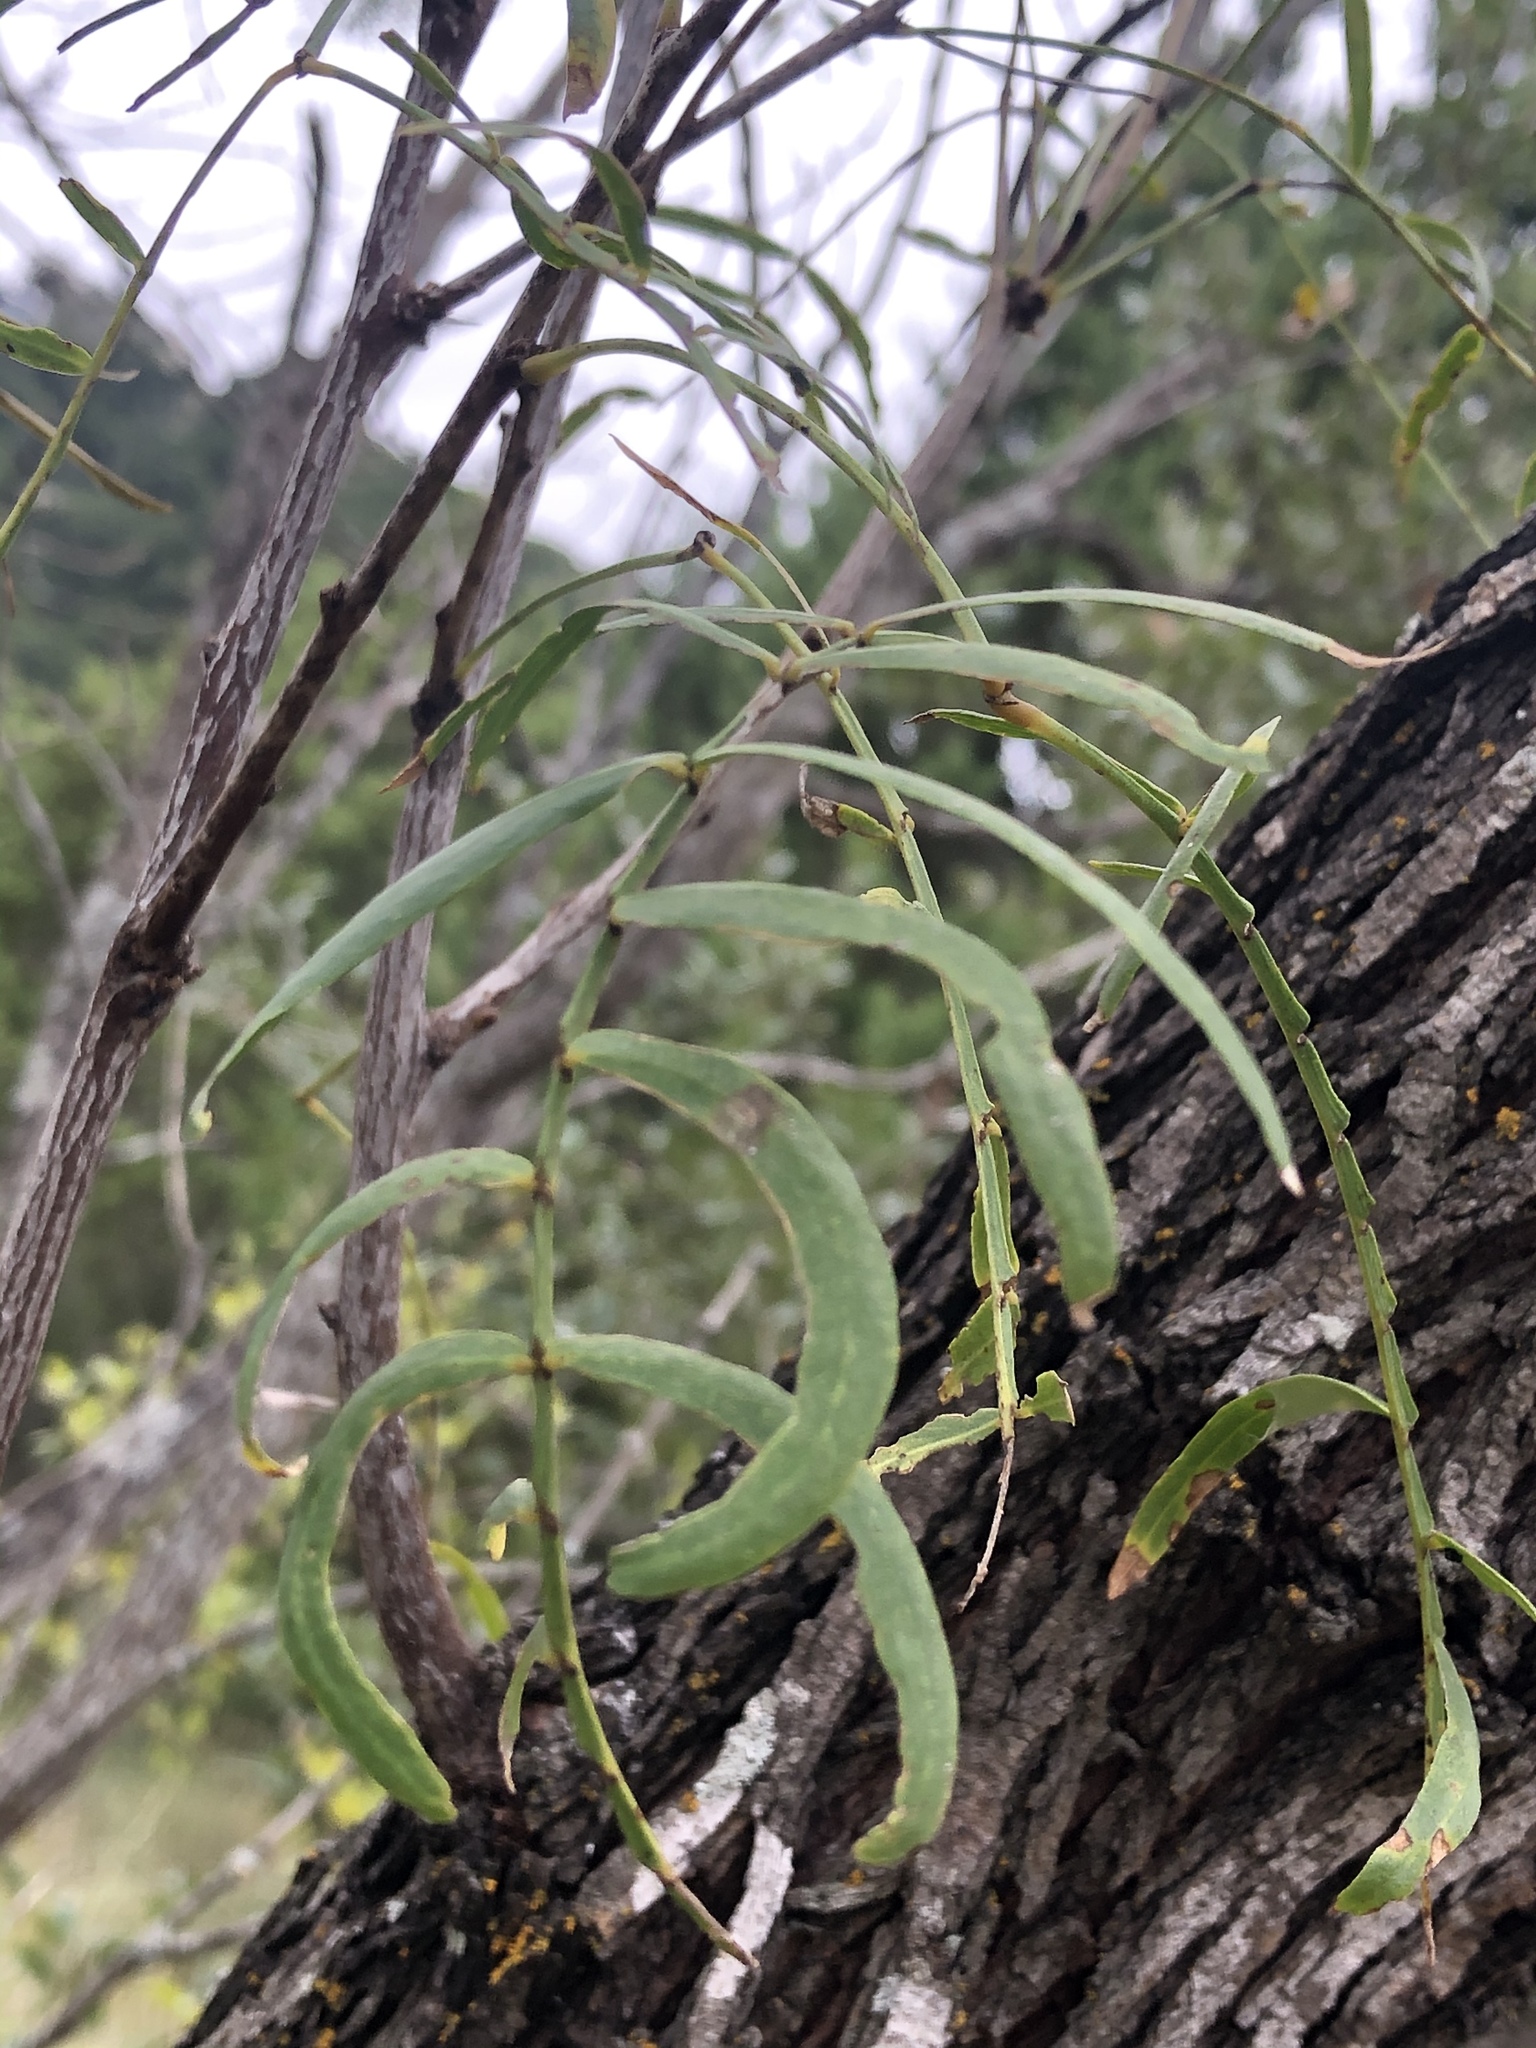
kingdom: Plantae
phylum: Tracheophyta
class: Magnoliopsida
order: Fabales
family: Fabaceae
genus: Prosopis
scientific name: Prosopis glandulosa
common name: Honey mesquite
